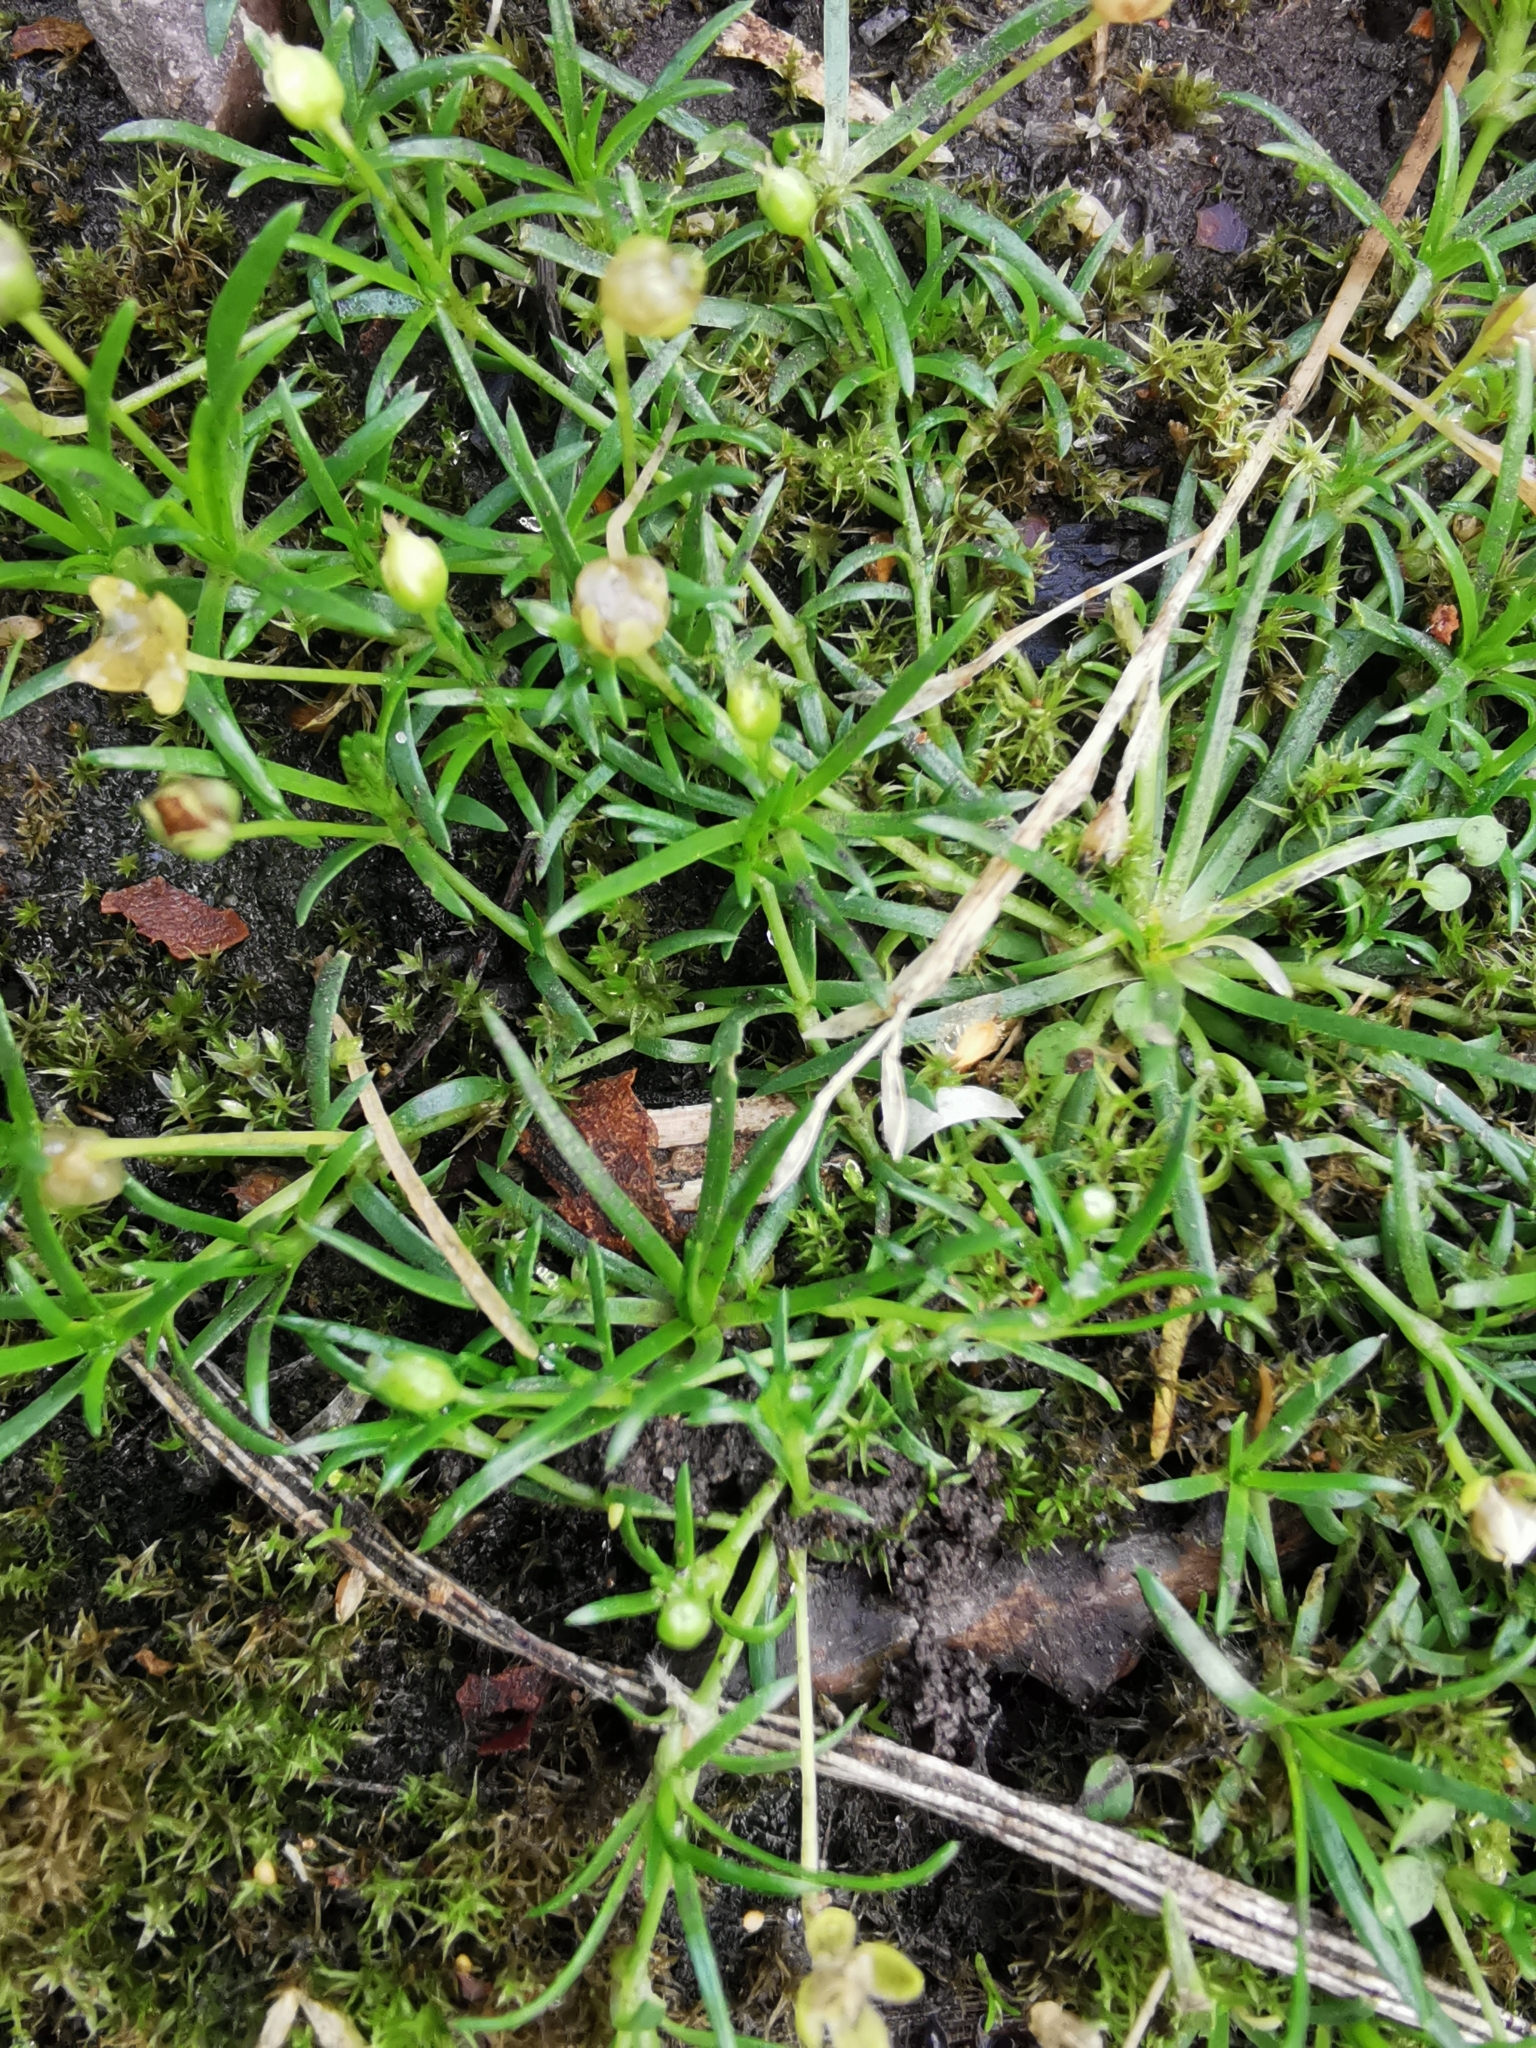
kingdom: Plantae
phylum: Tracheophyta
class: Magnoliopsida
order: Caryophyllales
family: Caryophyllaceae
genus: Sagina
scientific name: Sagina procumbens
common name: Procumbent pearlwort
